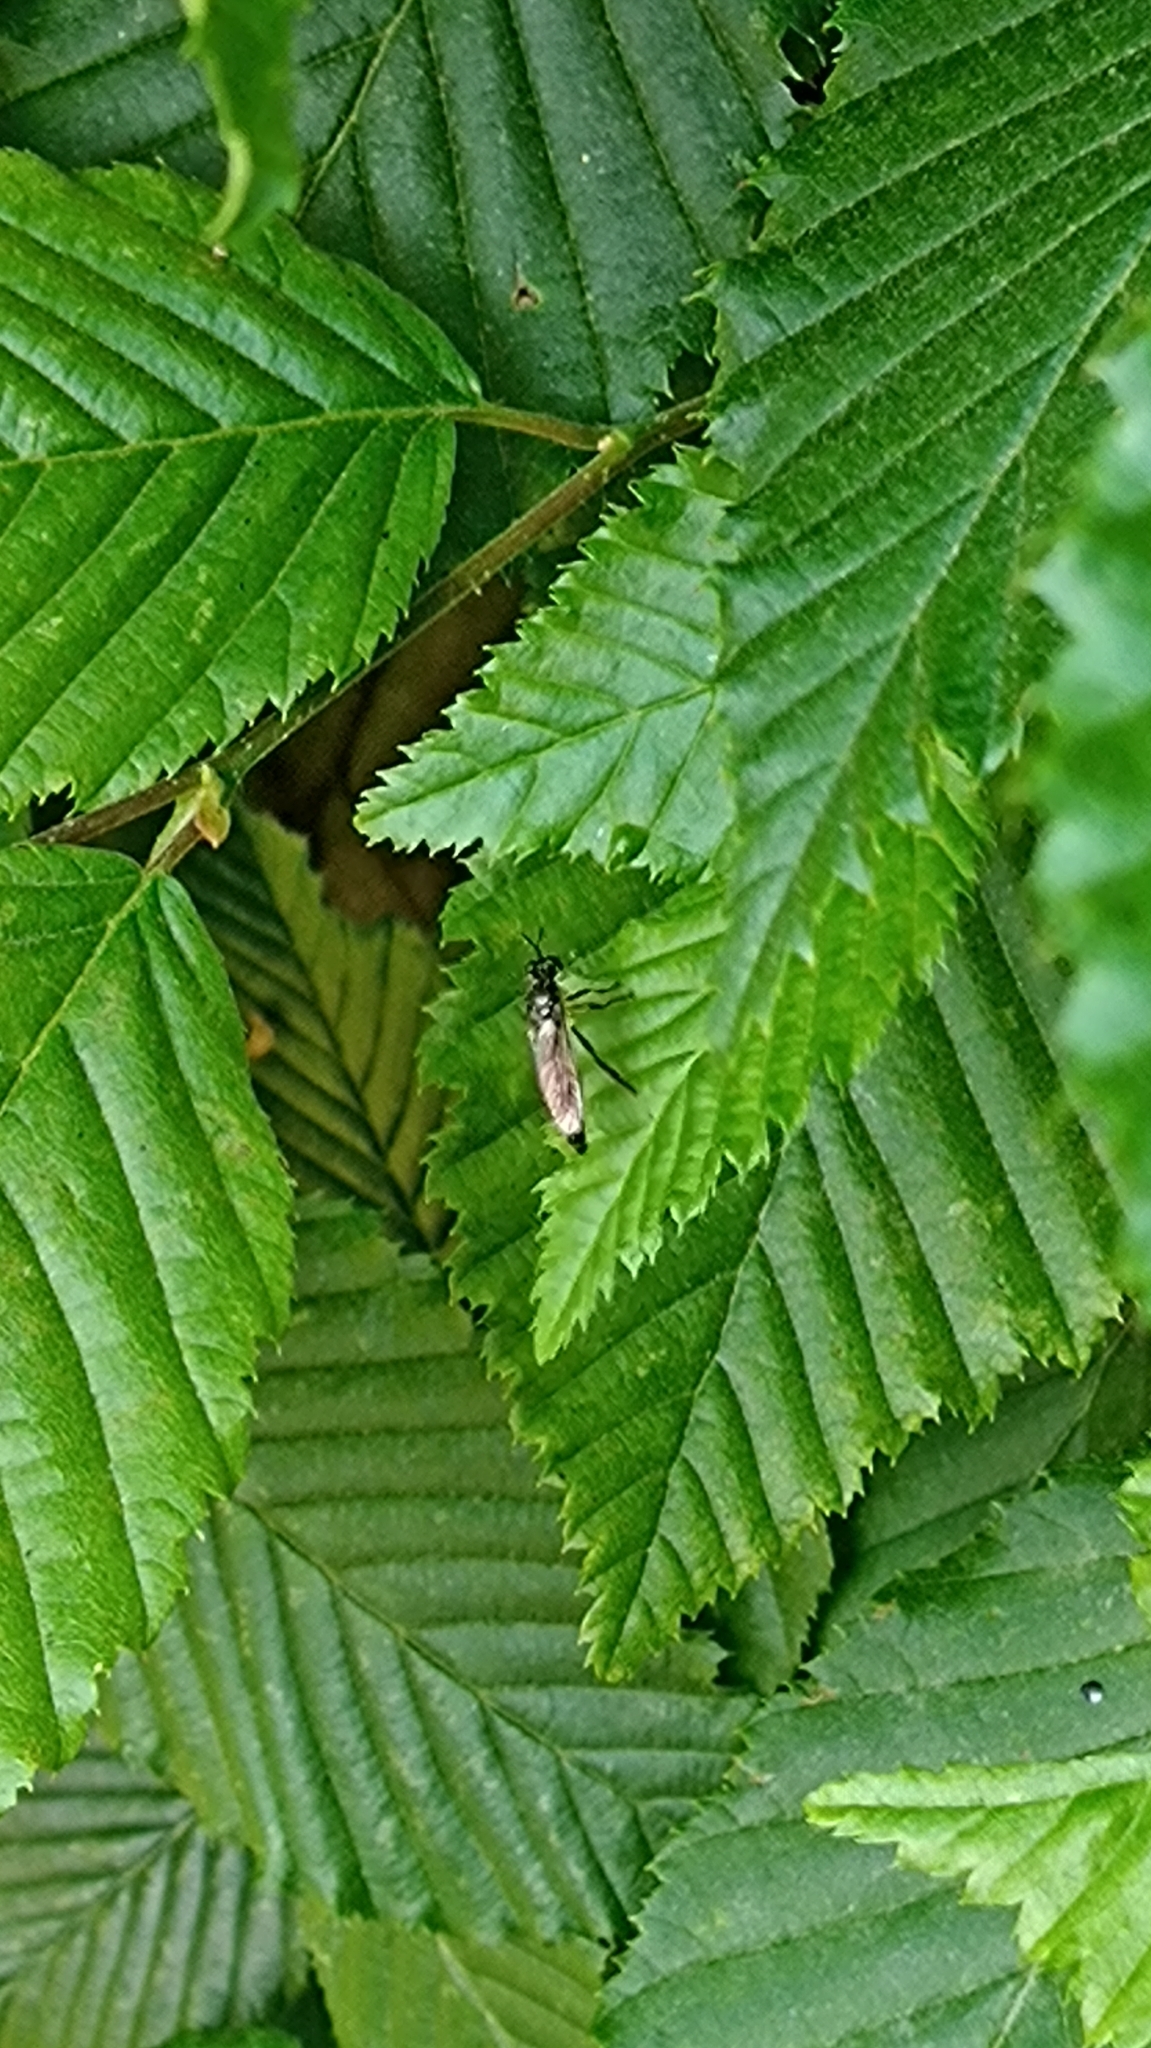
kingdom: Animalia
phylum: Arthropoda
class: Insecta
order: Diptera
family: Asilidae
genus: Dioctria
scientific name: Dioctria hyalipennis
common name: Stripe-legged robberfly
